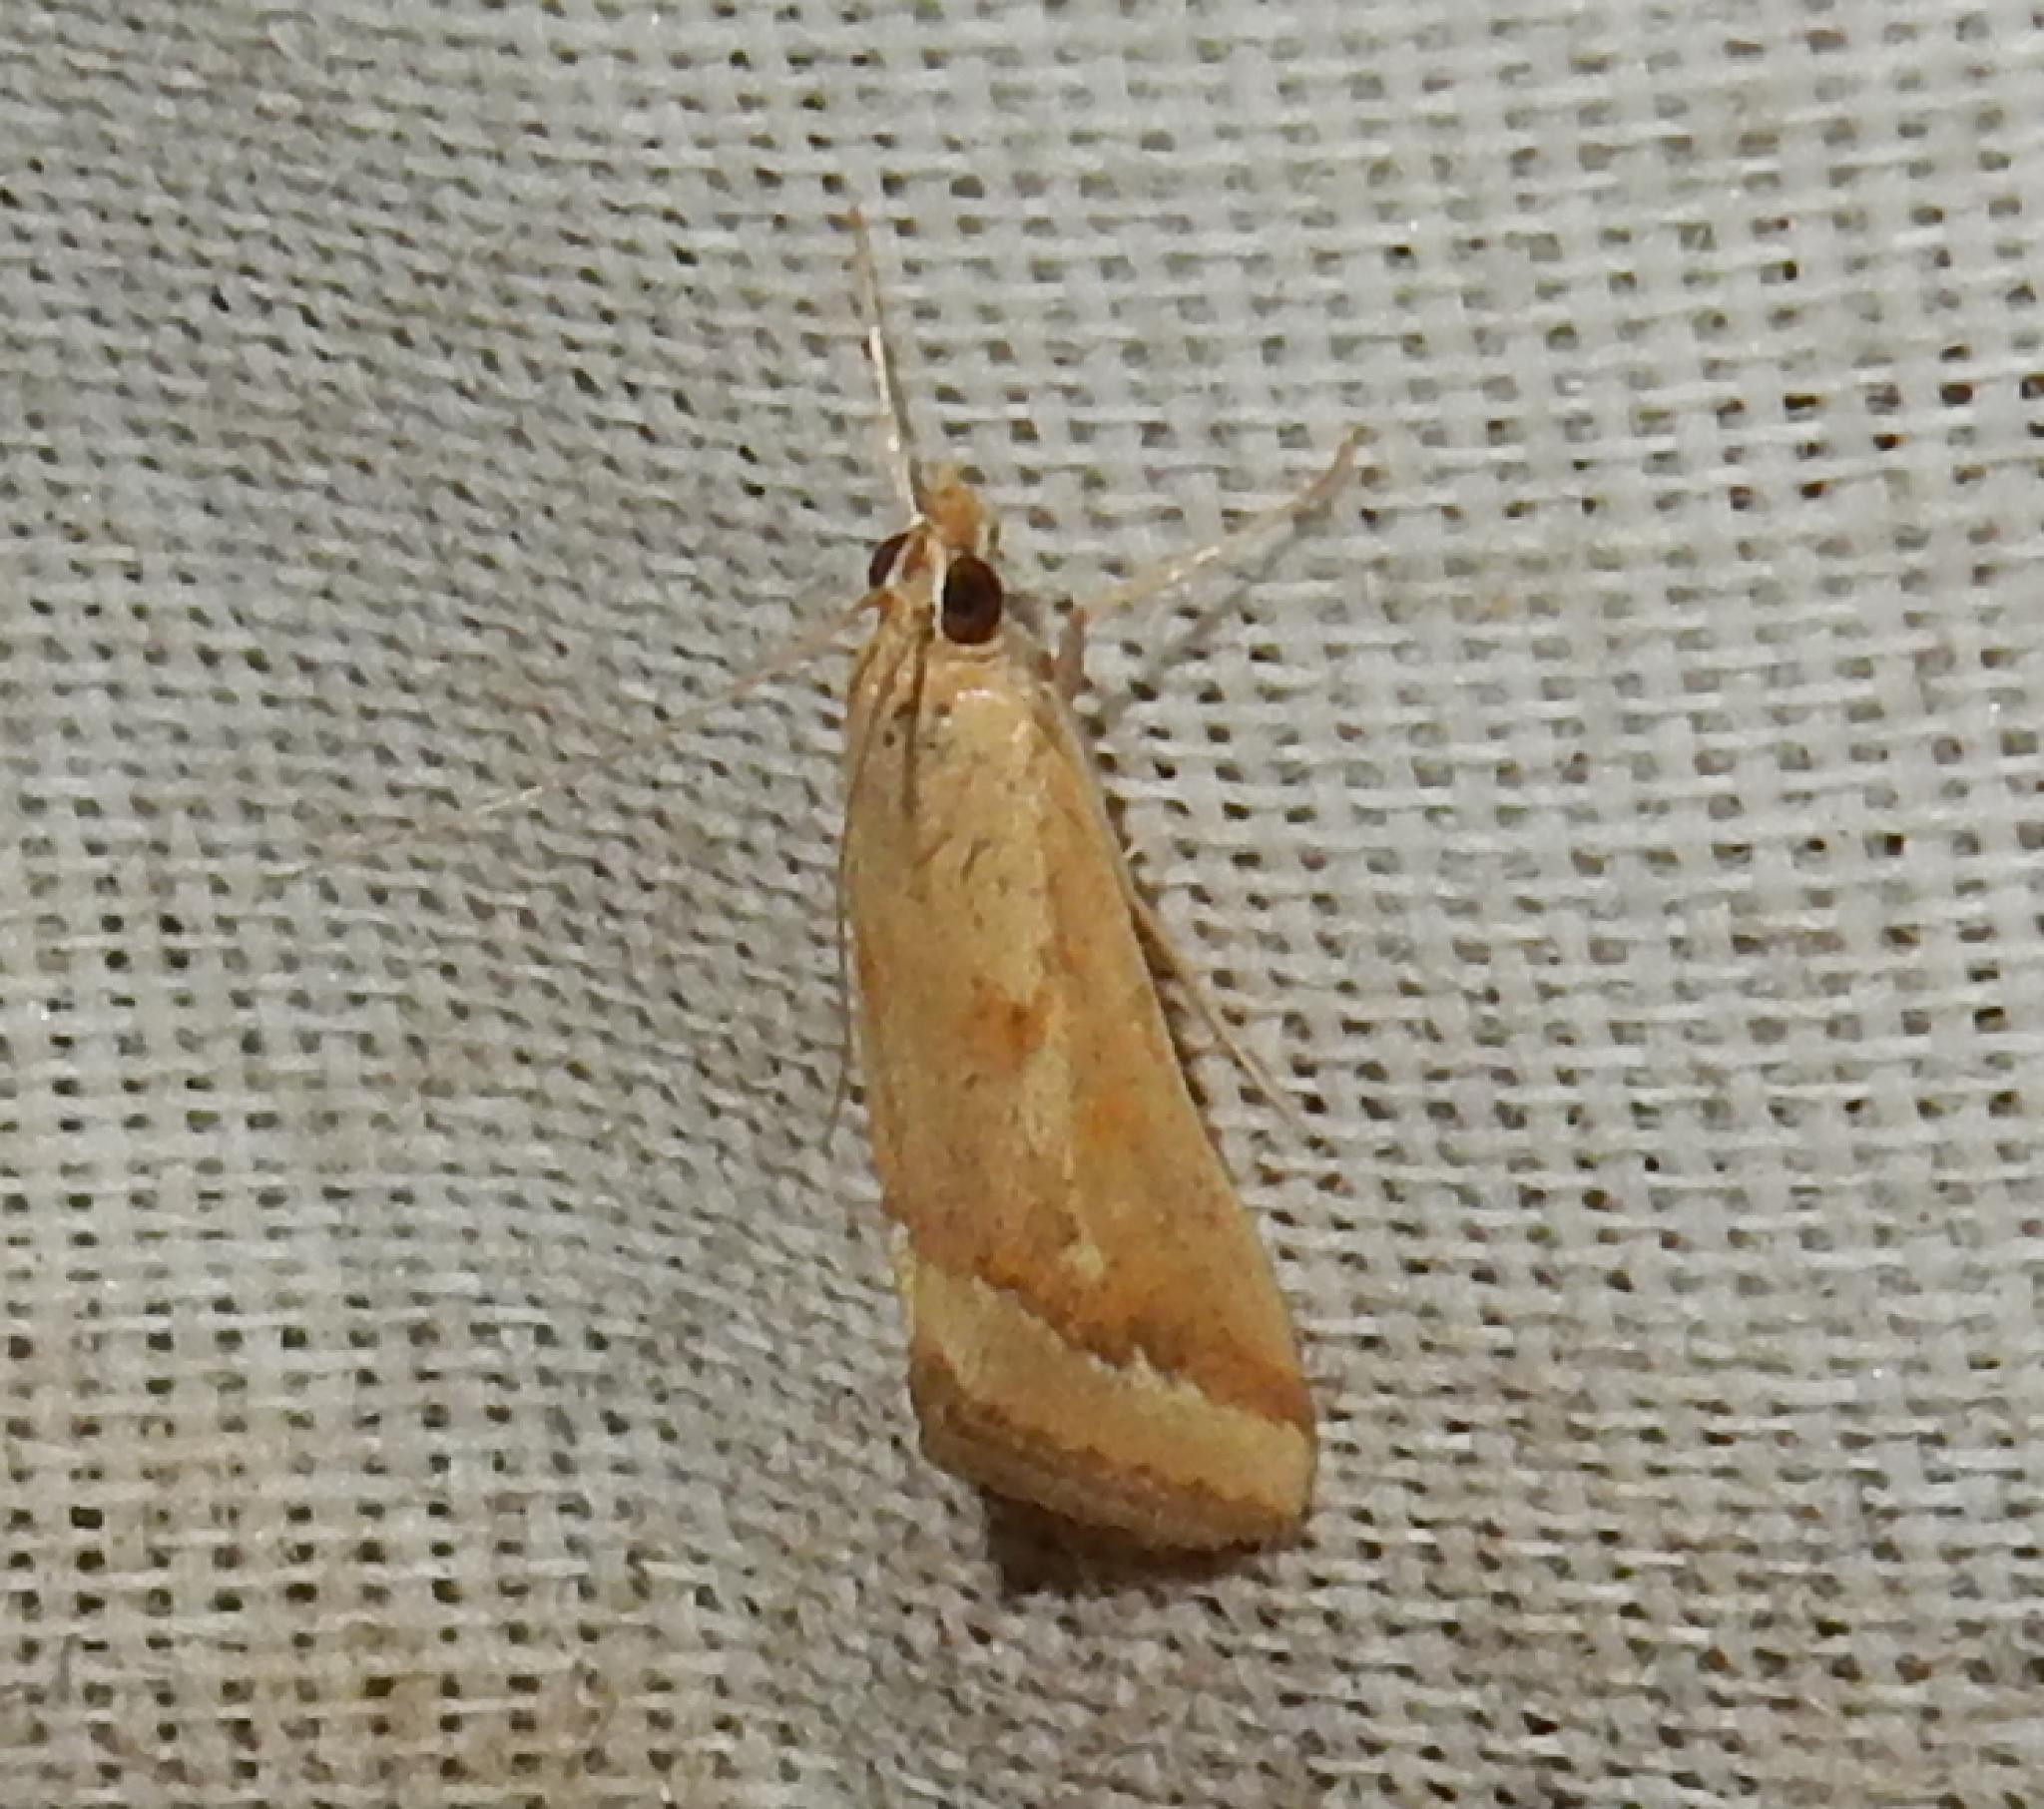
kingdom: Animalia
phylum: Arthropoda
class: Insecta
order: Lepidoptera
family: Crambidae
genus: Achyra
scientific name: Achyra coelatalis
